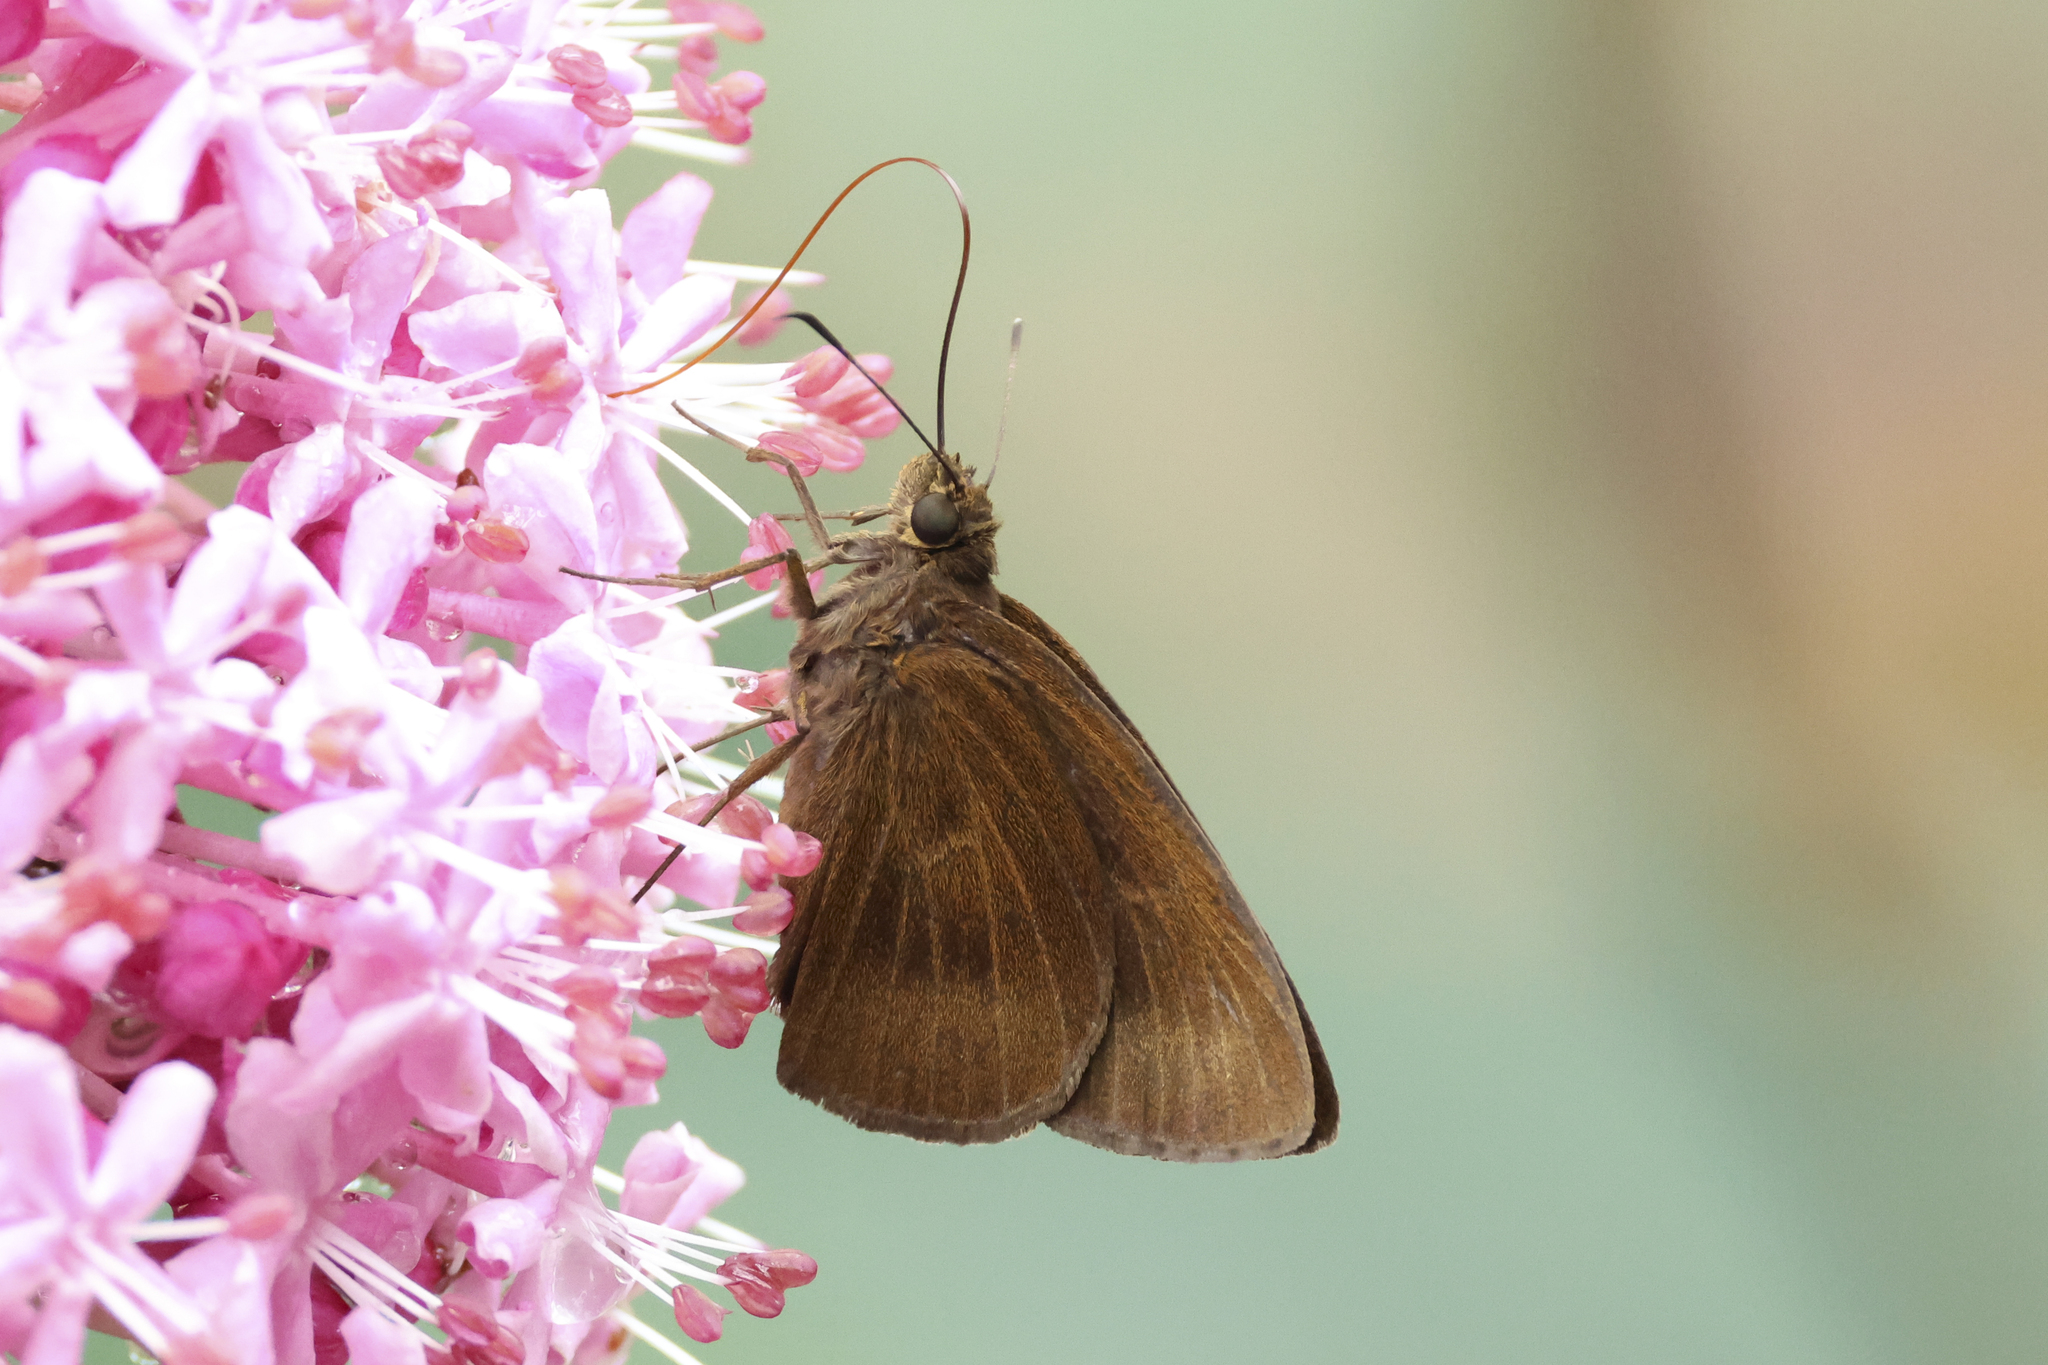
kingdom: Animalia
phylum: Arthropoda
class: Insecta
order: Lepidoptera
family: Hesperiidae
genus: Ancistroides
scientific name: Ancistroides nigrita
